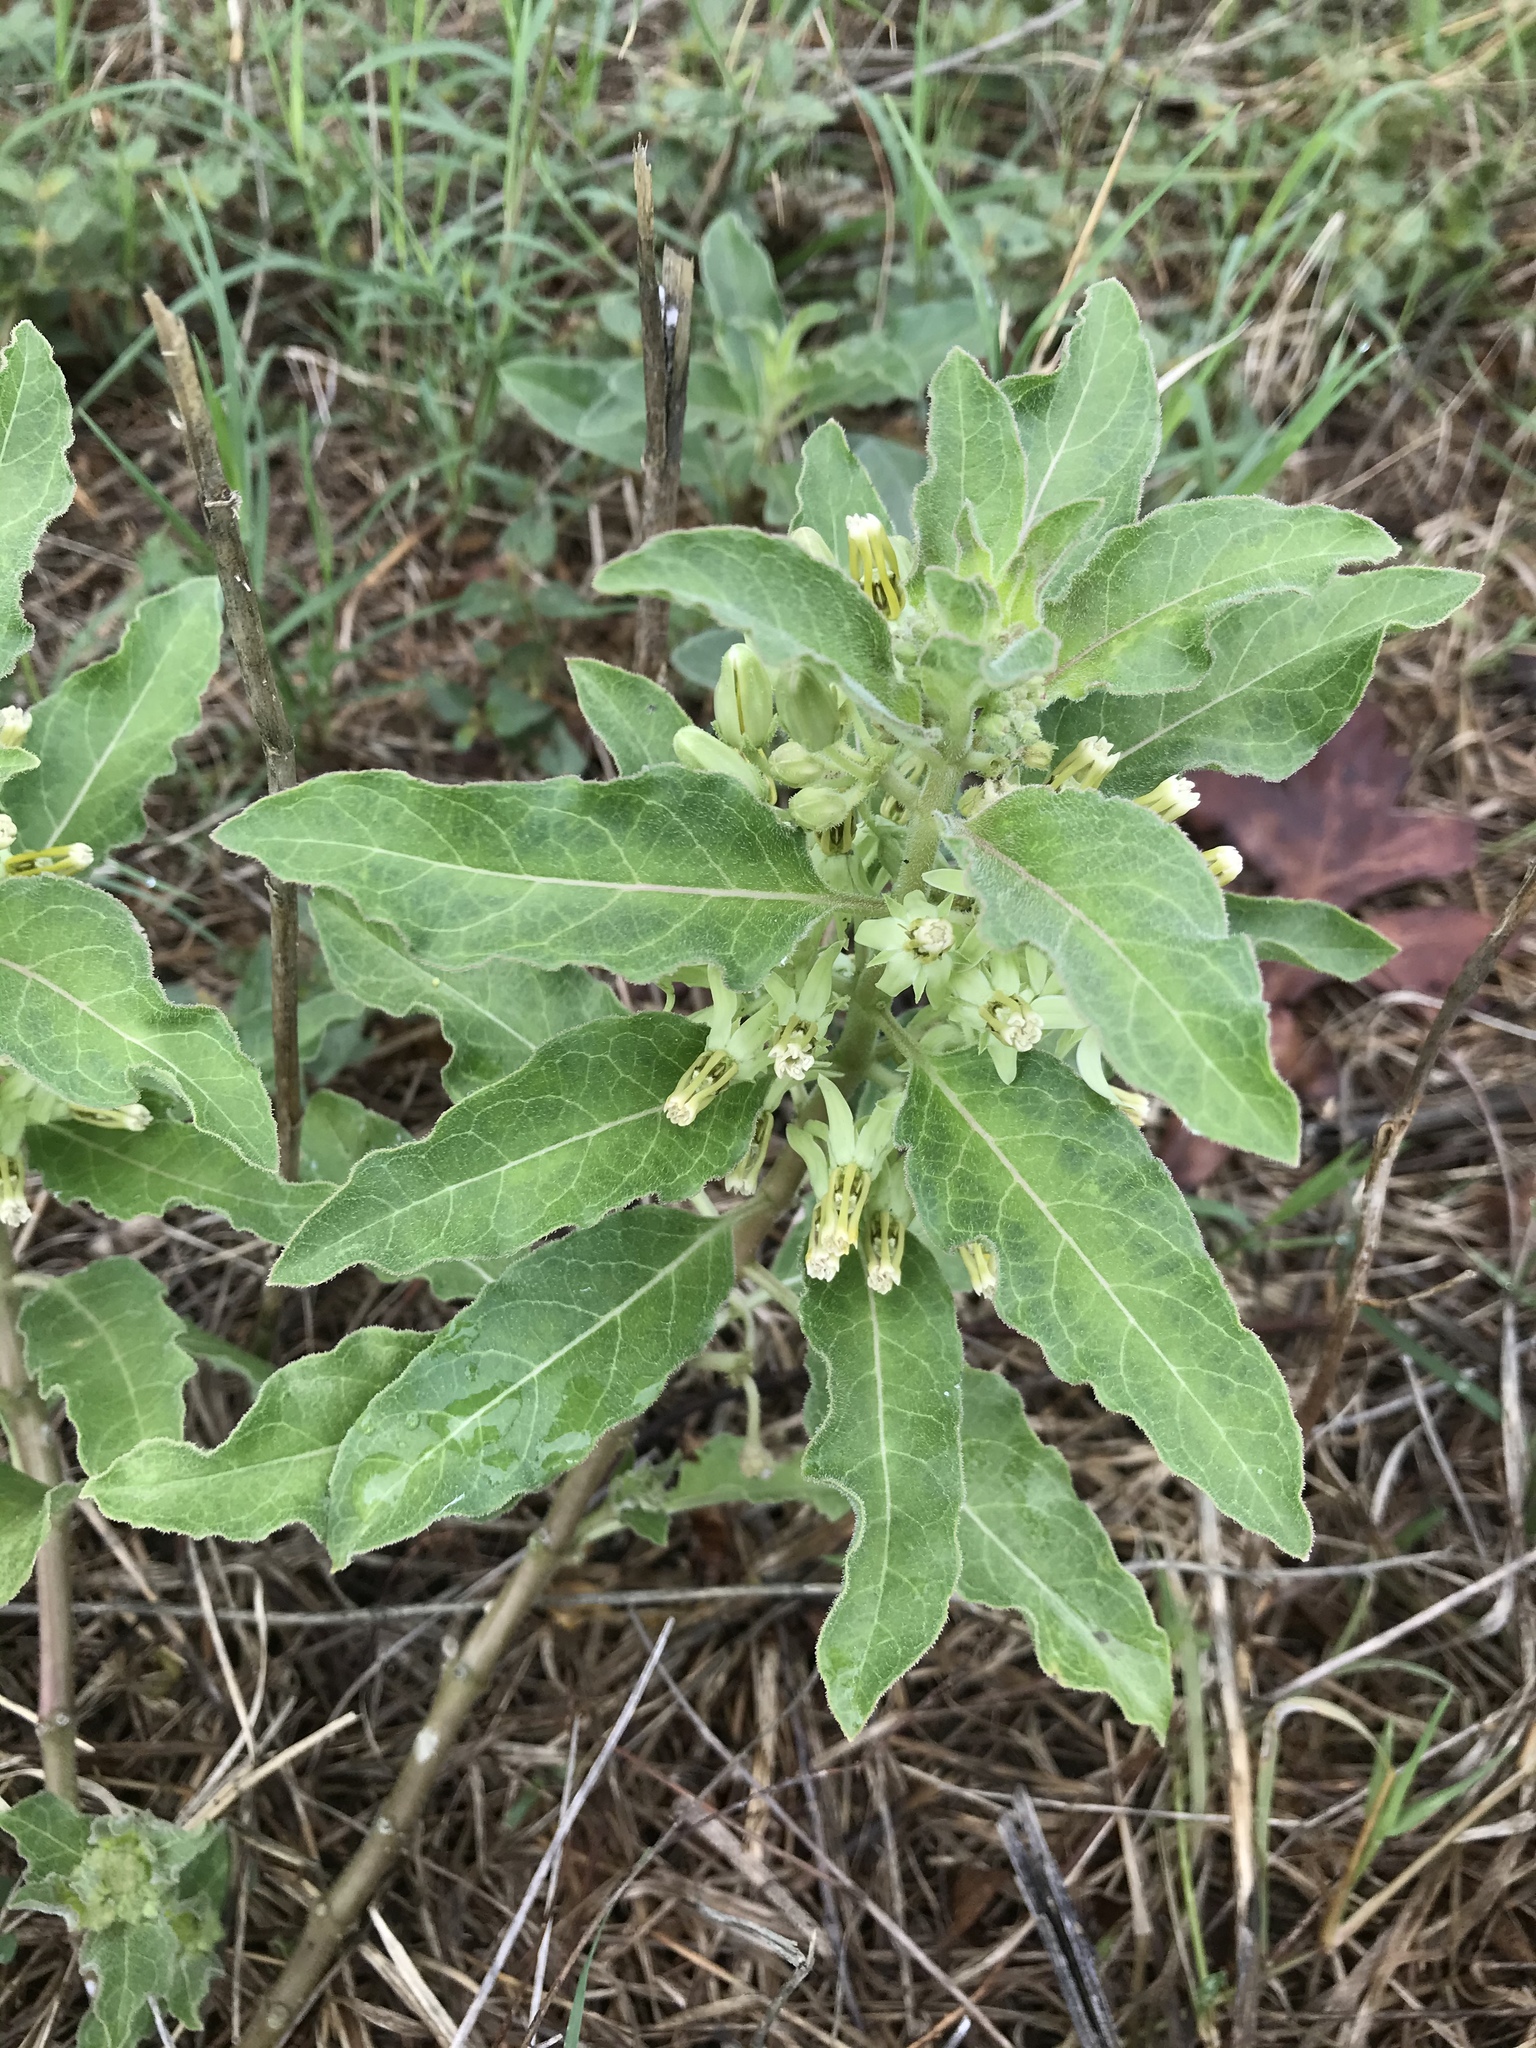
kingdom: Plantae
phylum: Tracheophyta
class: Magnoliopsida
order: Gentianales
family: Apocynaceae
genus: Asclepias
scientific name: Asclepias oenotheroides
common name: Zizotes milkweed
